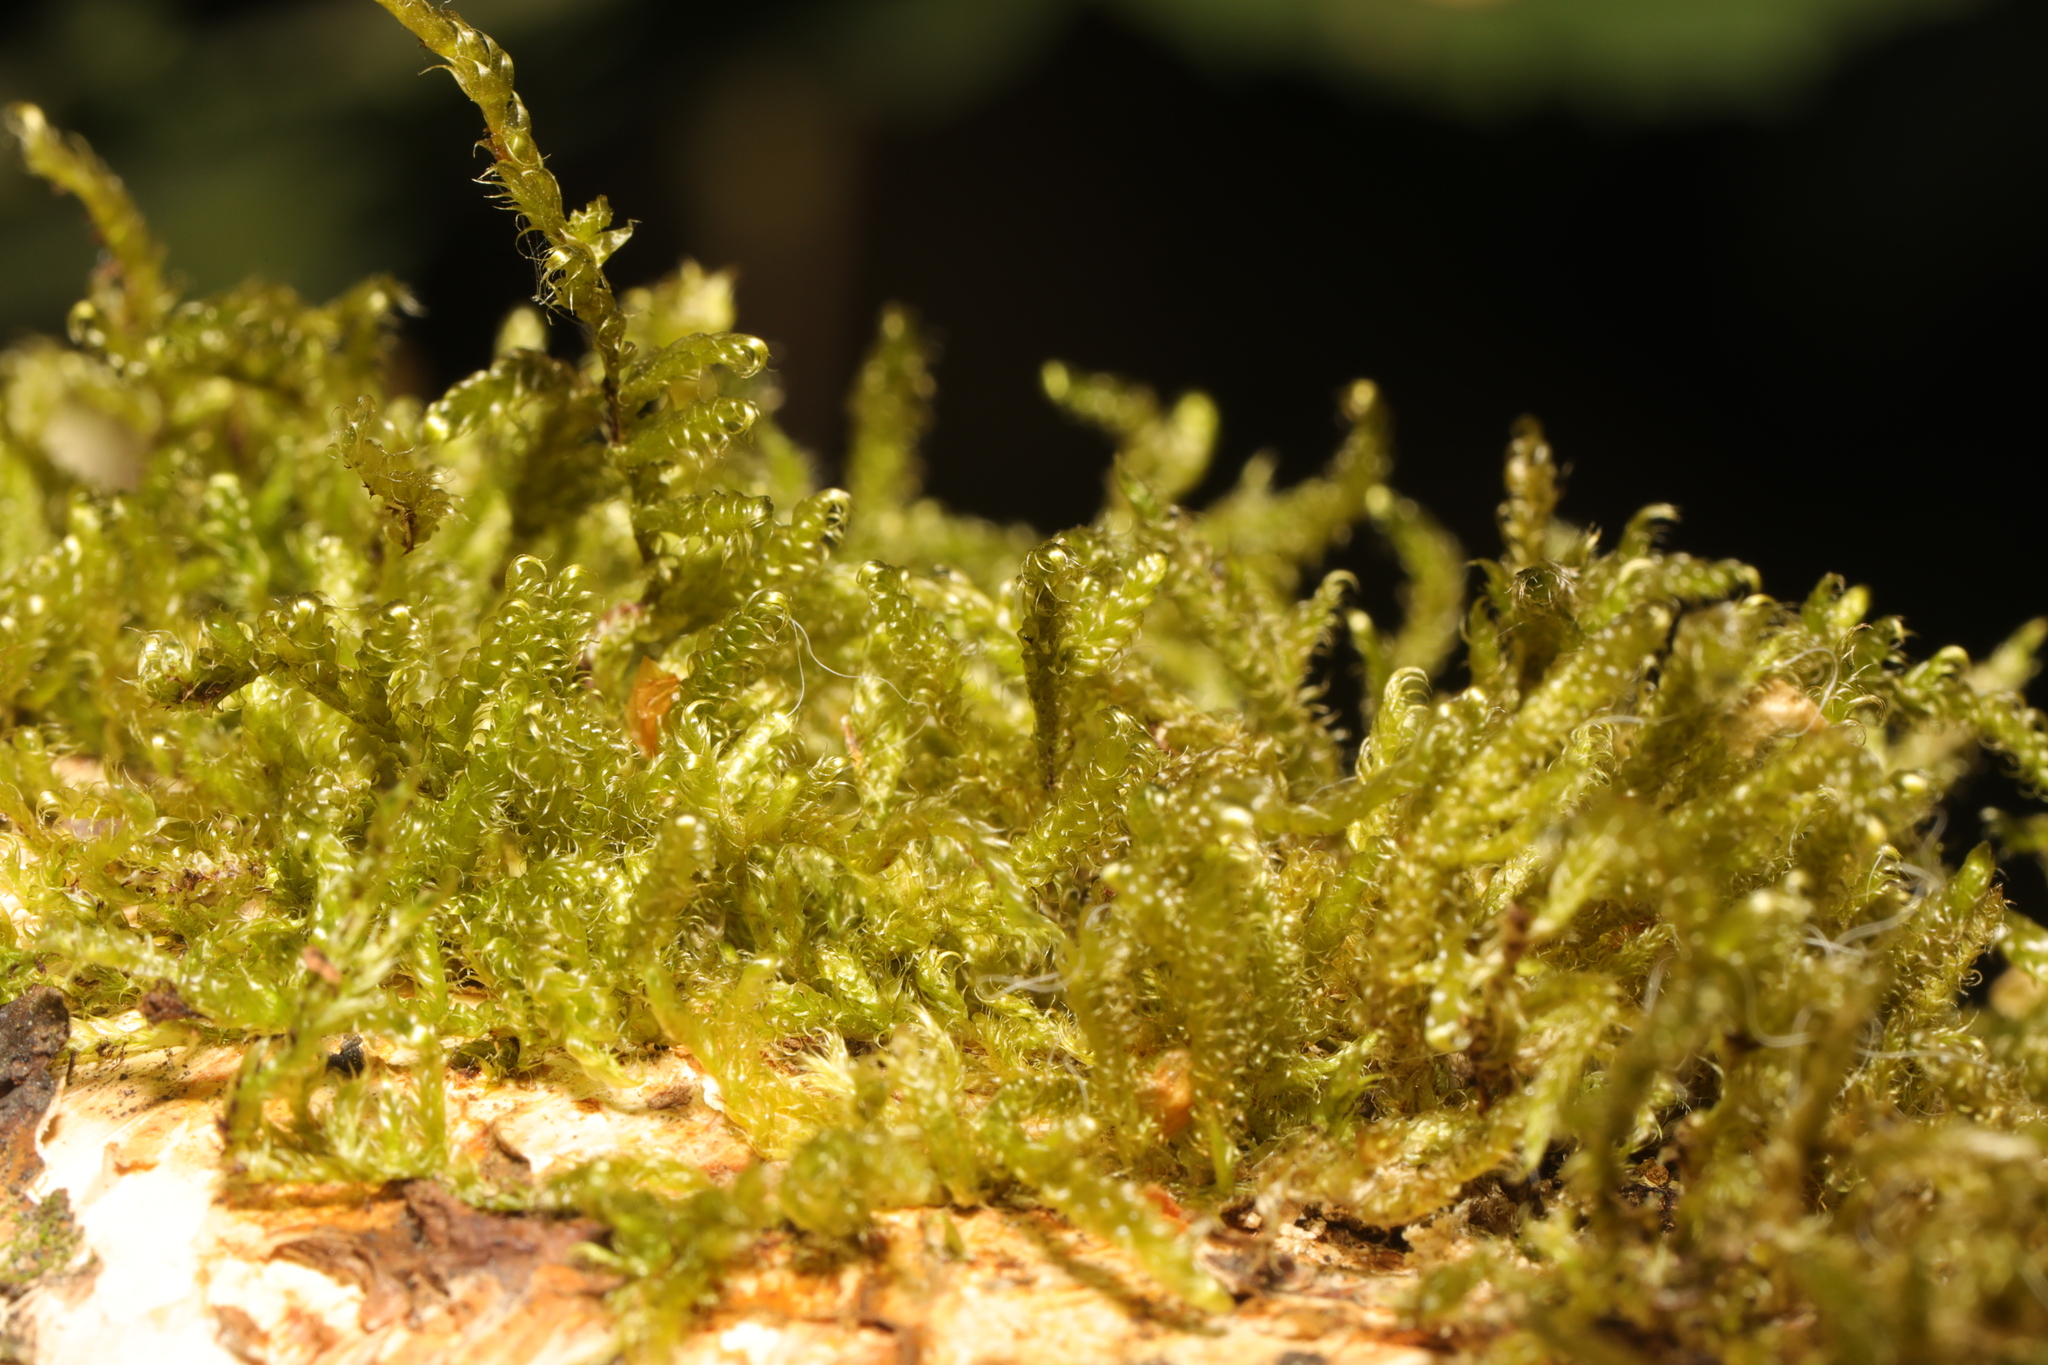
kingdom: Plantae
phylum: Bryophyta
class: Bryopsida
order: Hypnales
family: Hypnaceae
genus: Hypnum
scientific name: Hypnum cupressiforme
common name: Cypress-leaved plait-moss
